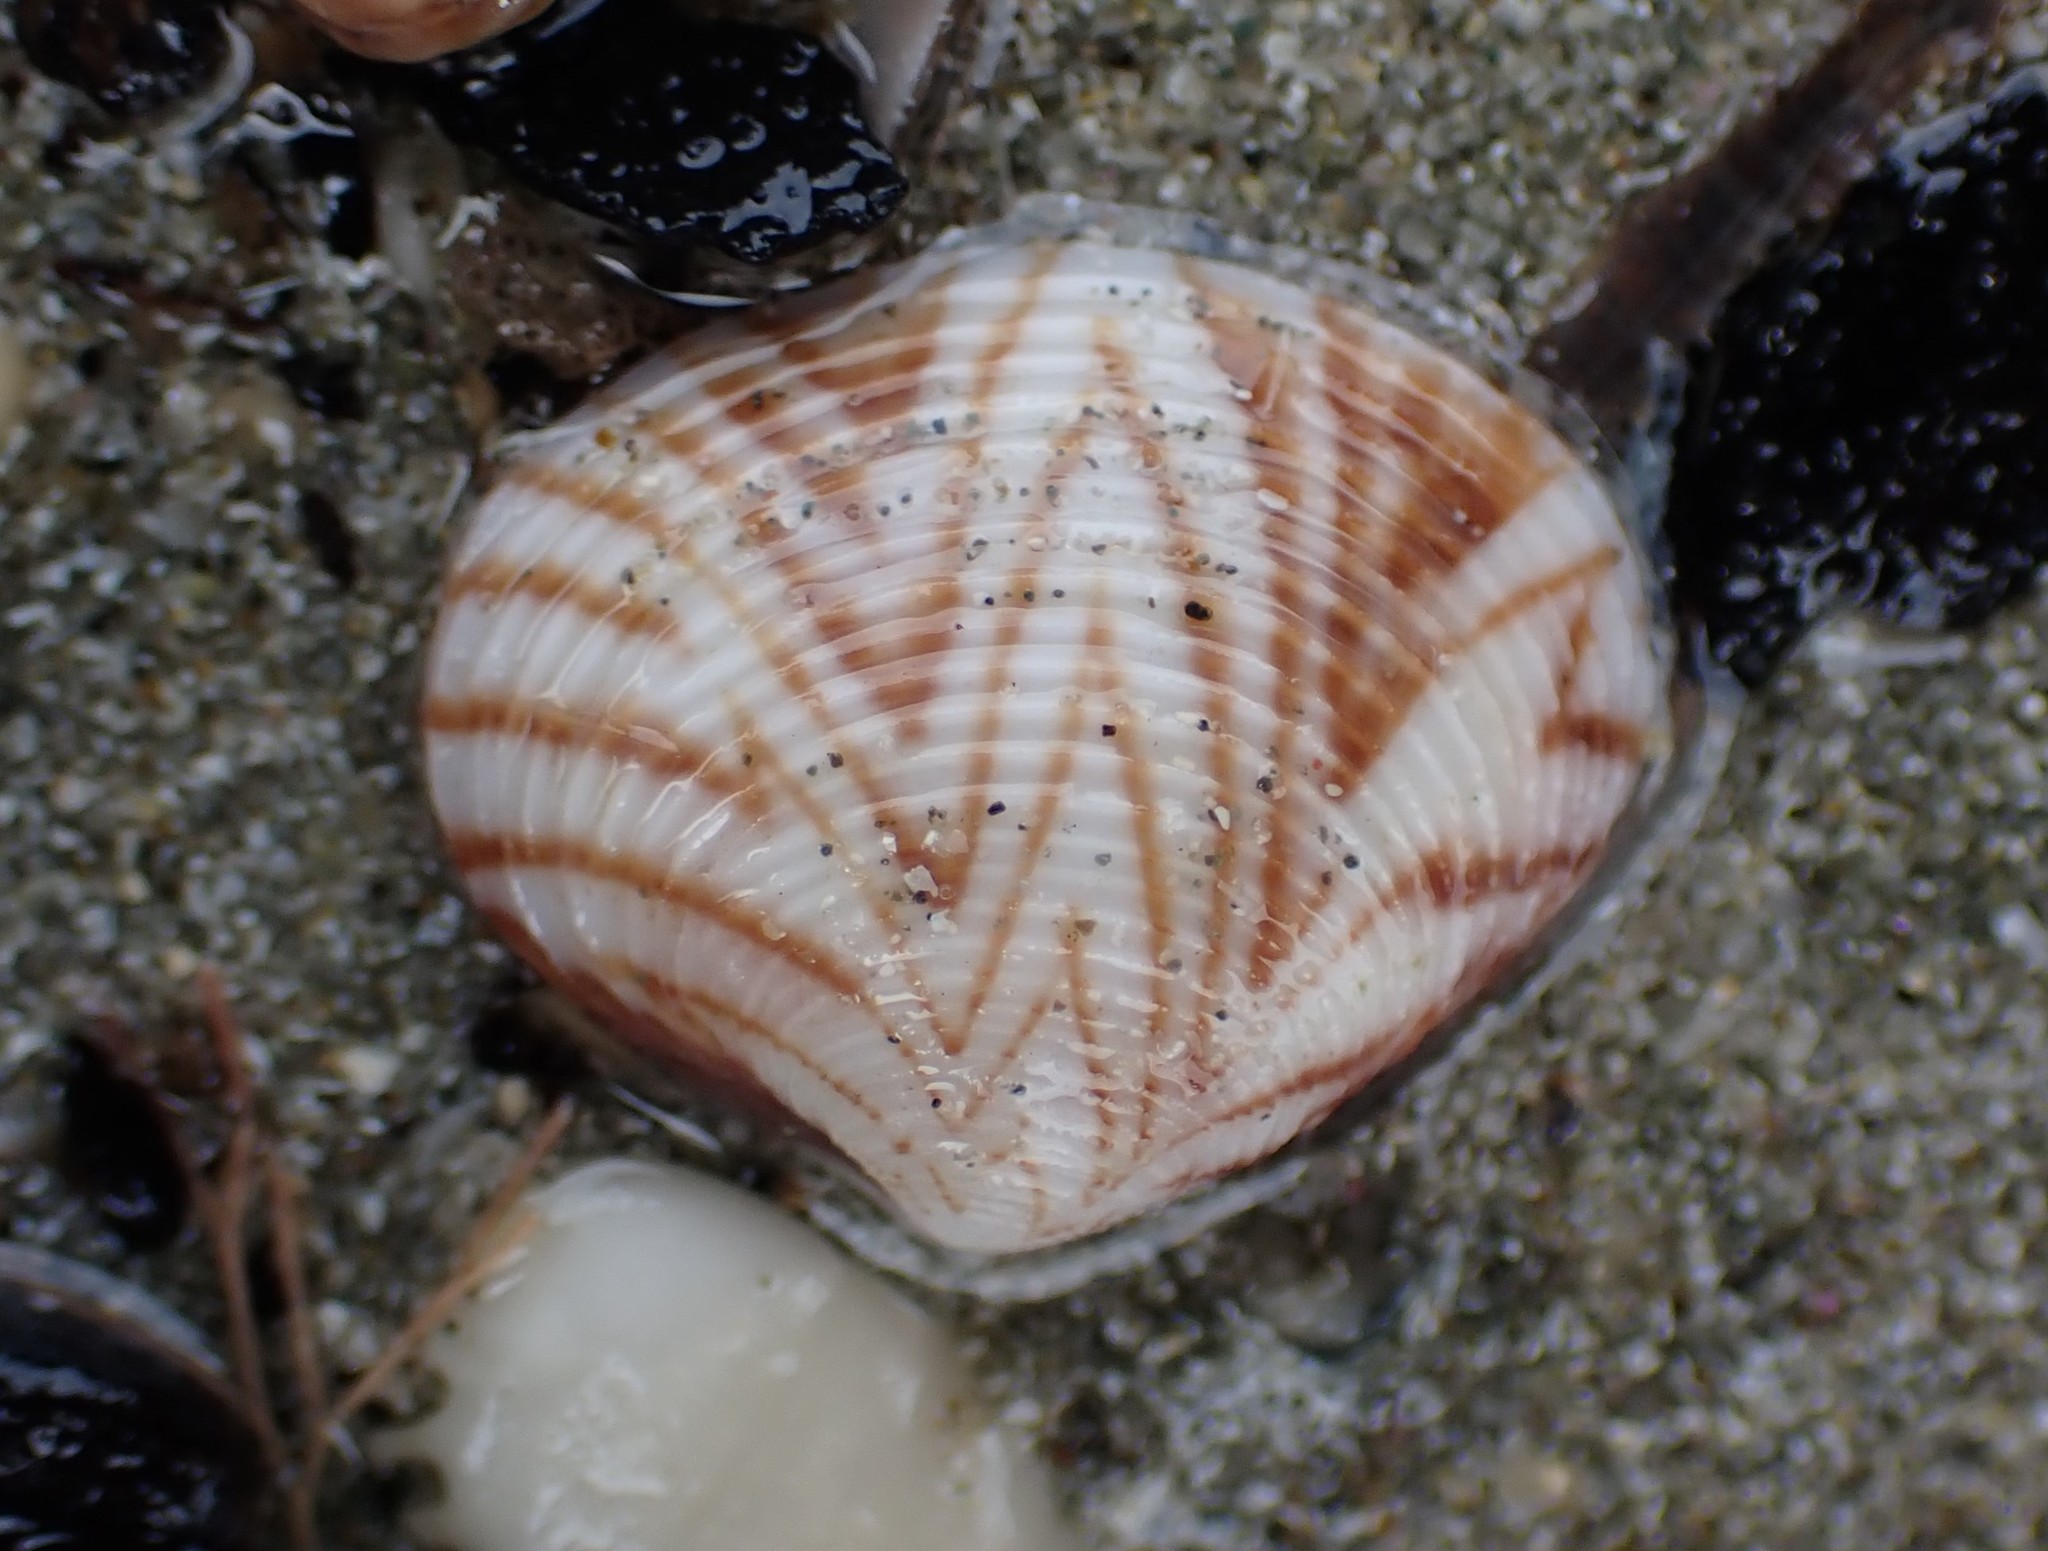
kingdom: Animalia
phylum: Mollusca
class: Bivalvia
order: Venerida
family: Veneridae
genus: Tawera
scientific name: Tawera spissa
